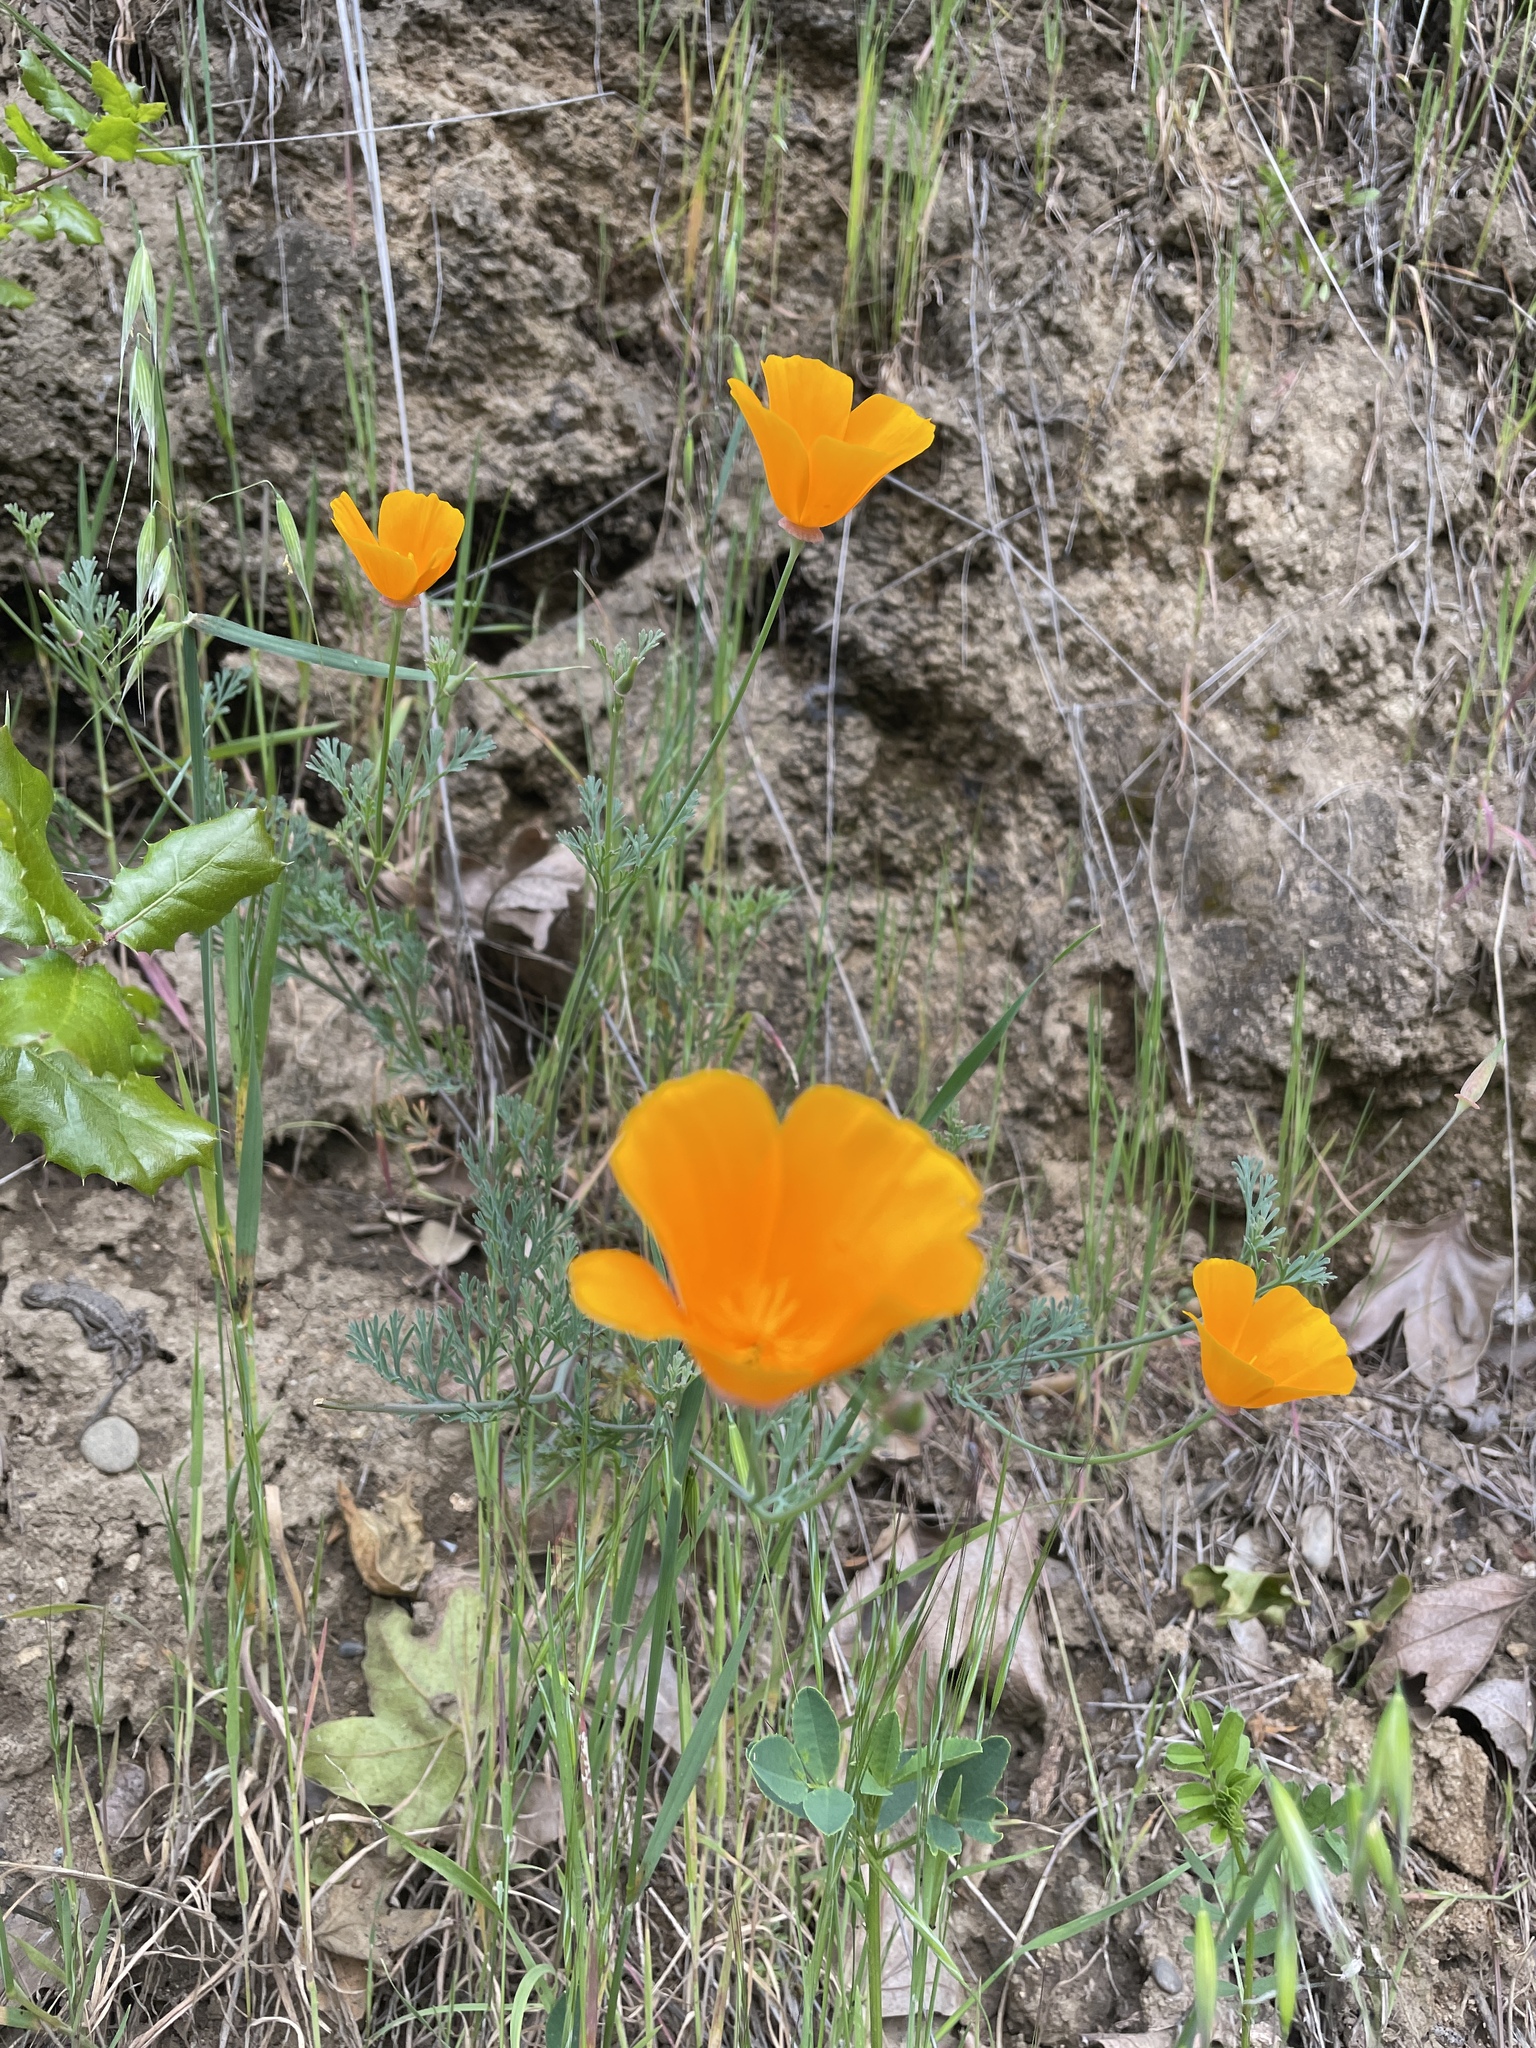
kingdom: Plantae
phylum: Tracheophyta
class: Magnoliopsida
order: Ranunculales
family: Papaveraceae
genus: Eschscholzia
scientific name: Eschscholzia californica
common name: California poppy
